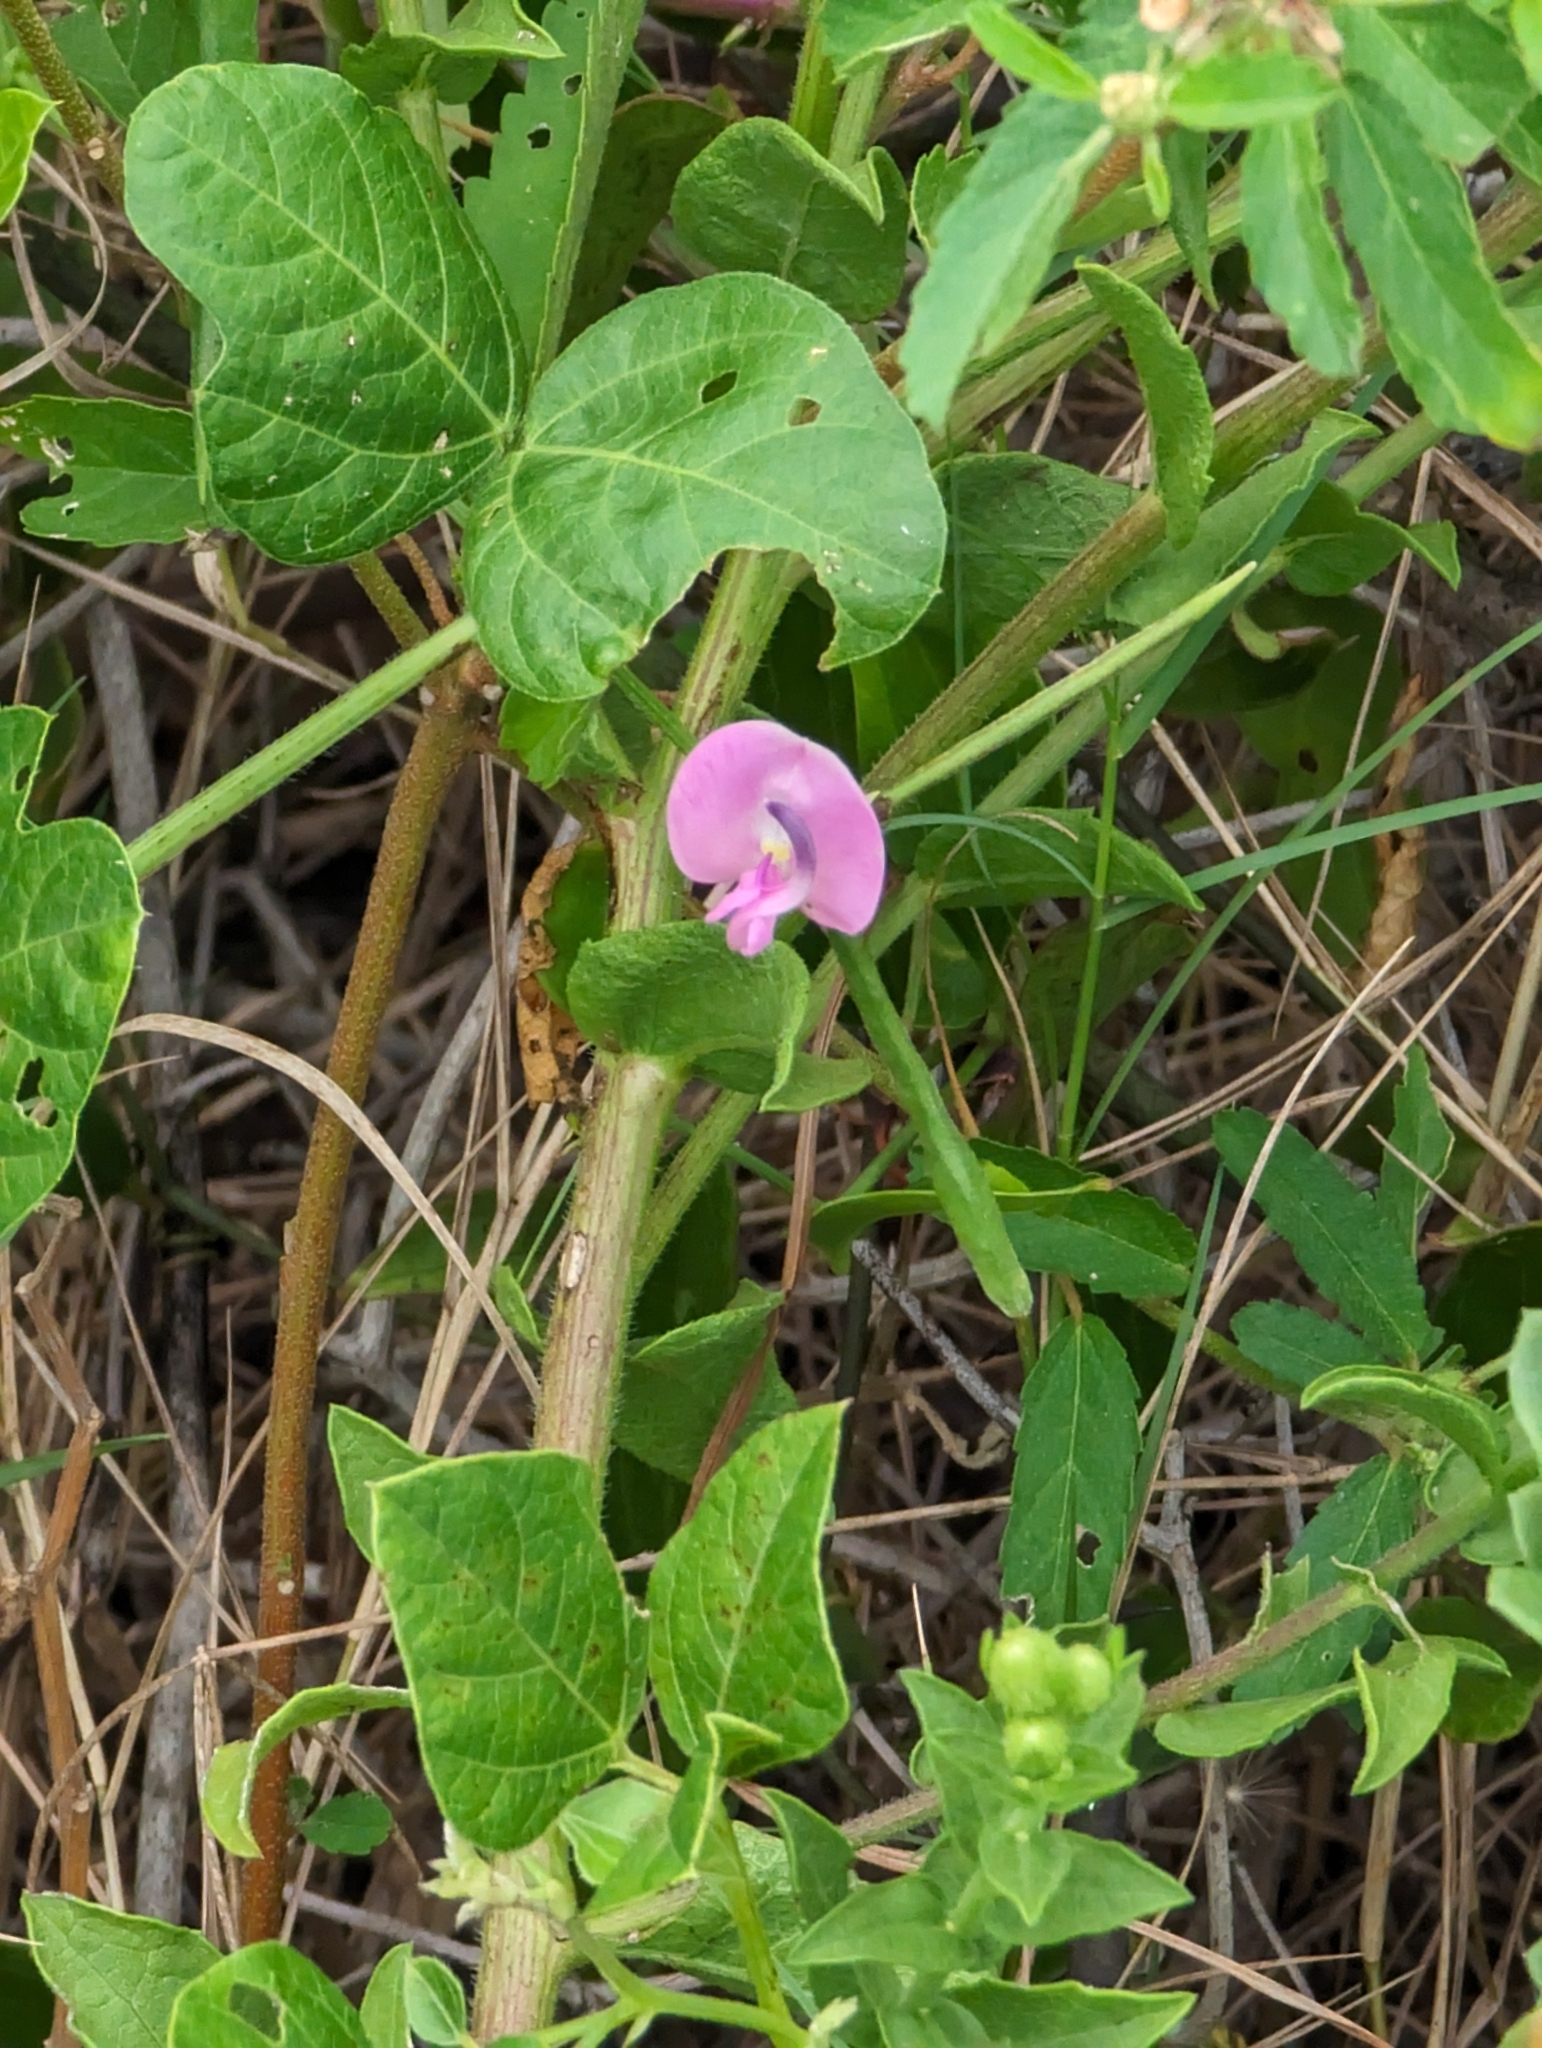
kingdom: Plantae
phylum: Tracheophyta
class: Magnoliopsida
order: Fabales
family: Fabaceae
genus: Strophostyles
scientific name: Strophostyles helvola
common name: Trailing wild bean
